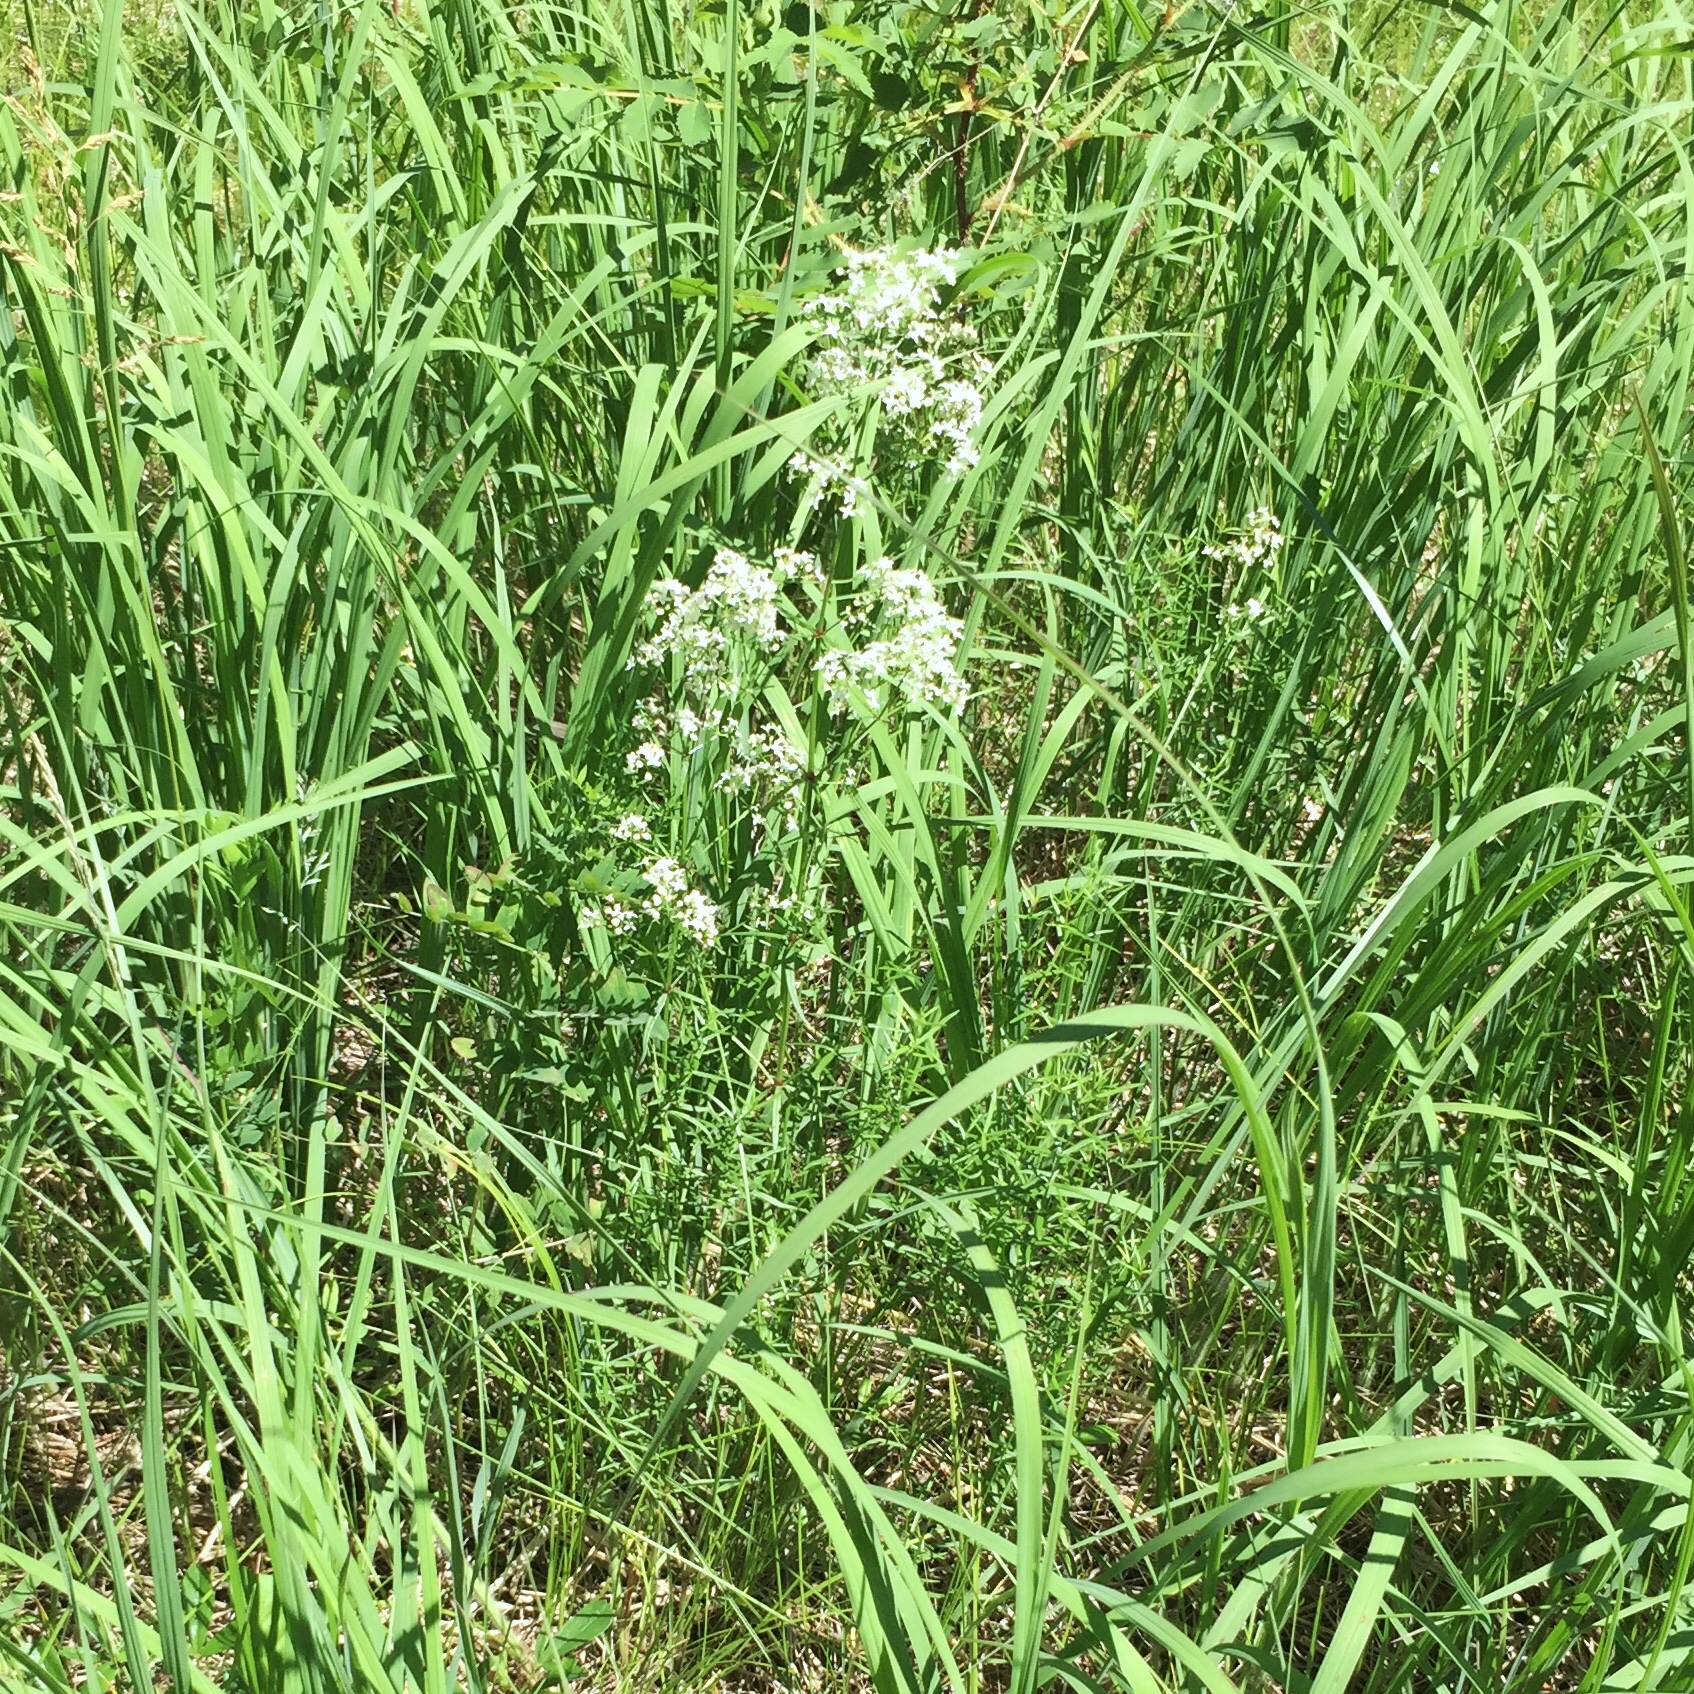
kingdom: Plantae
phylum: Tracheophyta
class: Magnoliopsida
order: Gentianales
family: Rubiaceae
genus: Galium
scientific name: Galium boreale
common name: Northern bedstraw
